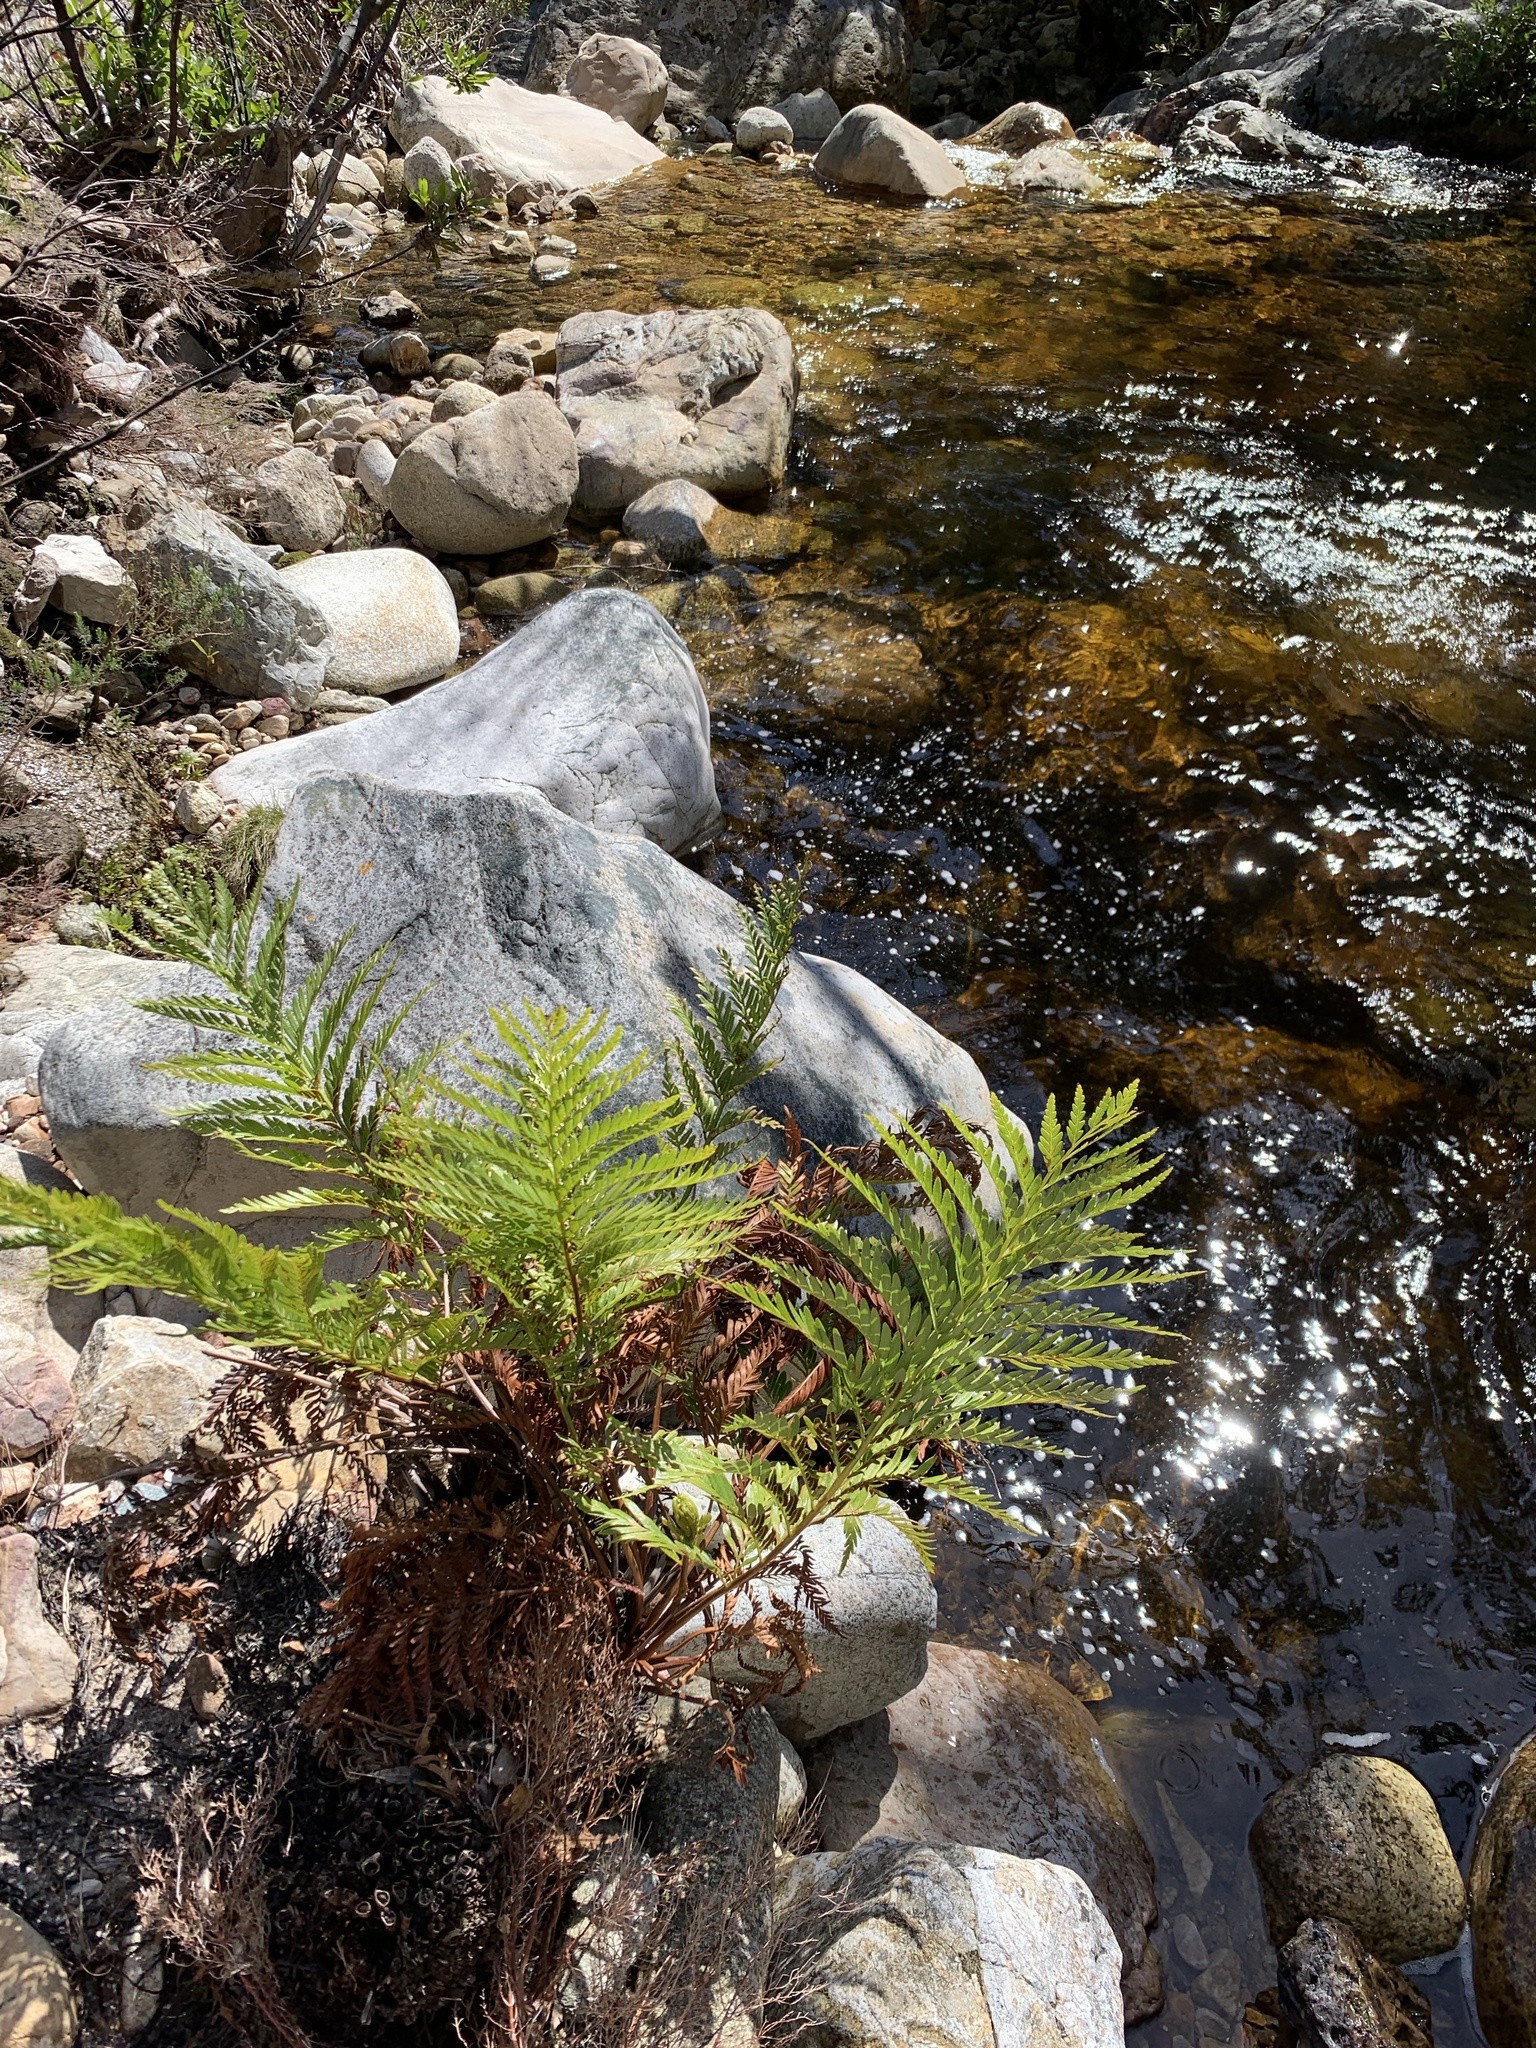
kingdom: Plantae
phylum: Tracheophyta
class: Polypodiopsida
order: Osmundales
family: Osmundaceae
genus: Todea
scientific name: Todea barbara
